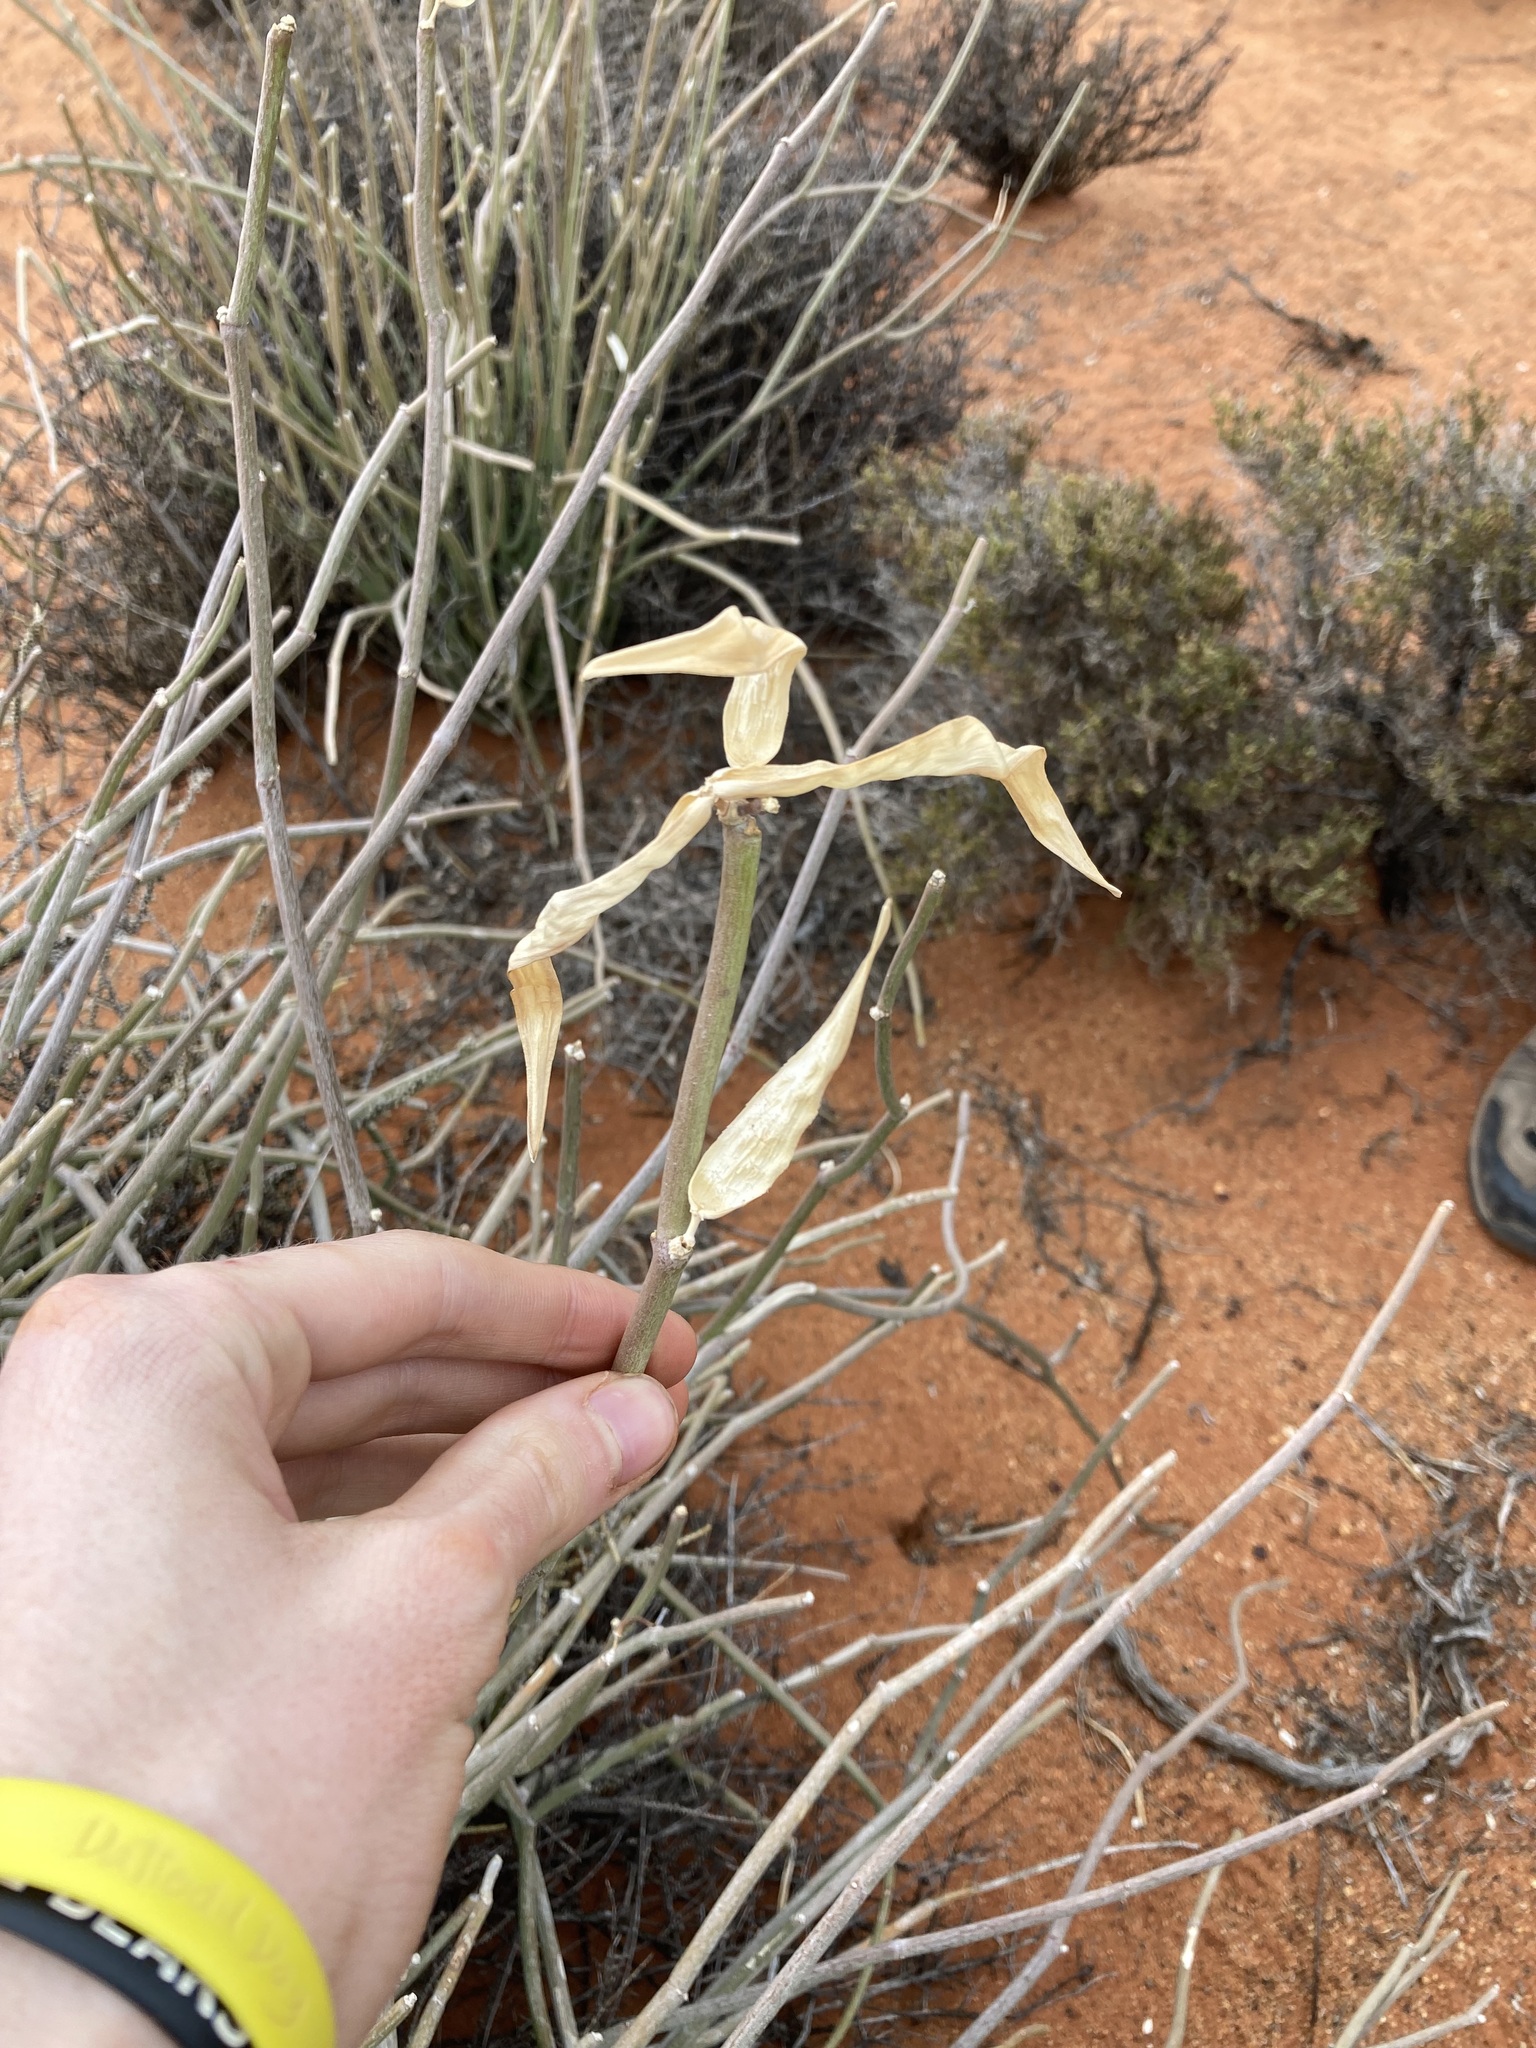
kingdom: Plantae
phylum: Tracheophyta
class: Magnoliopsida
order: Gentianales
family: Apocynaceae
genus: Cynanchum
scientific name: Cynanchum viminale
